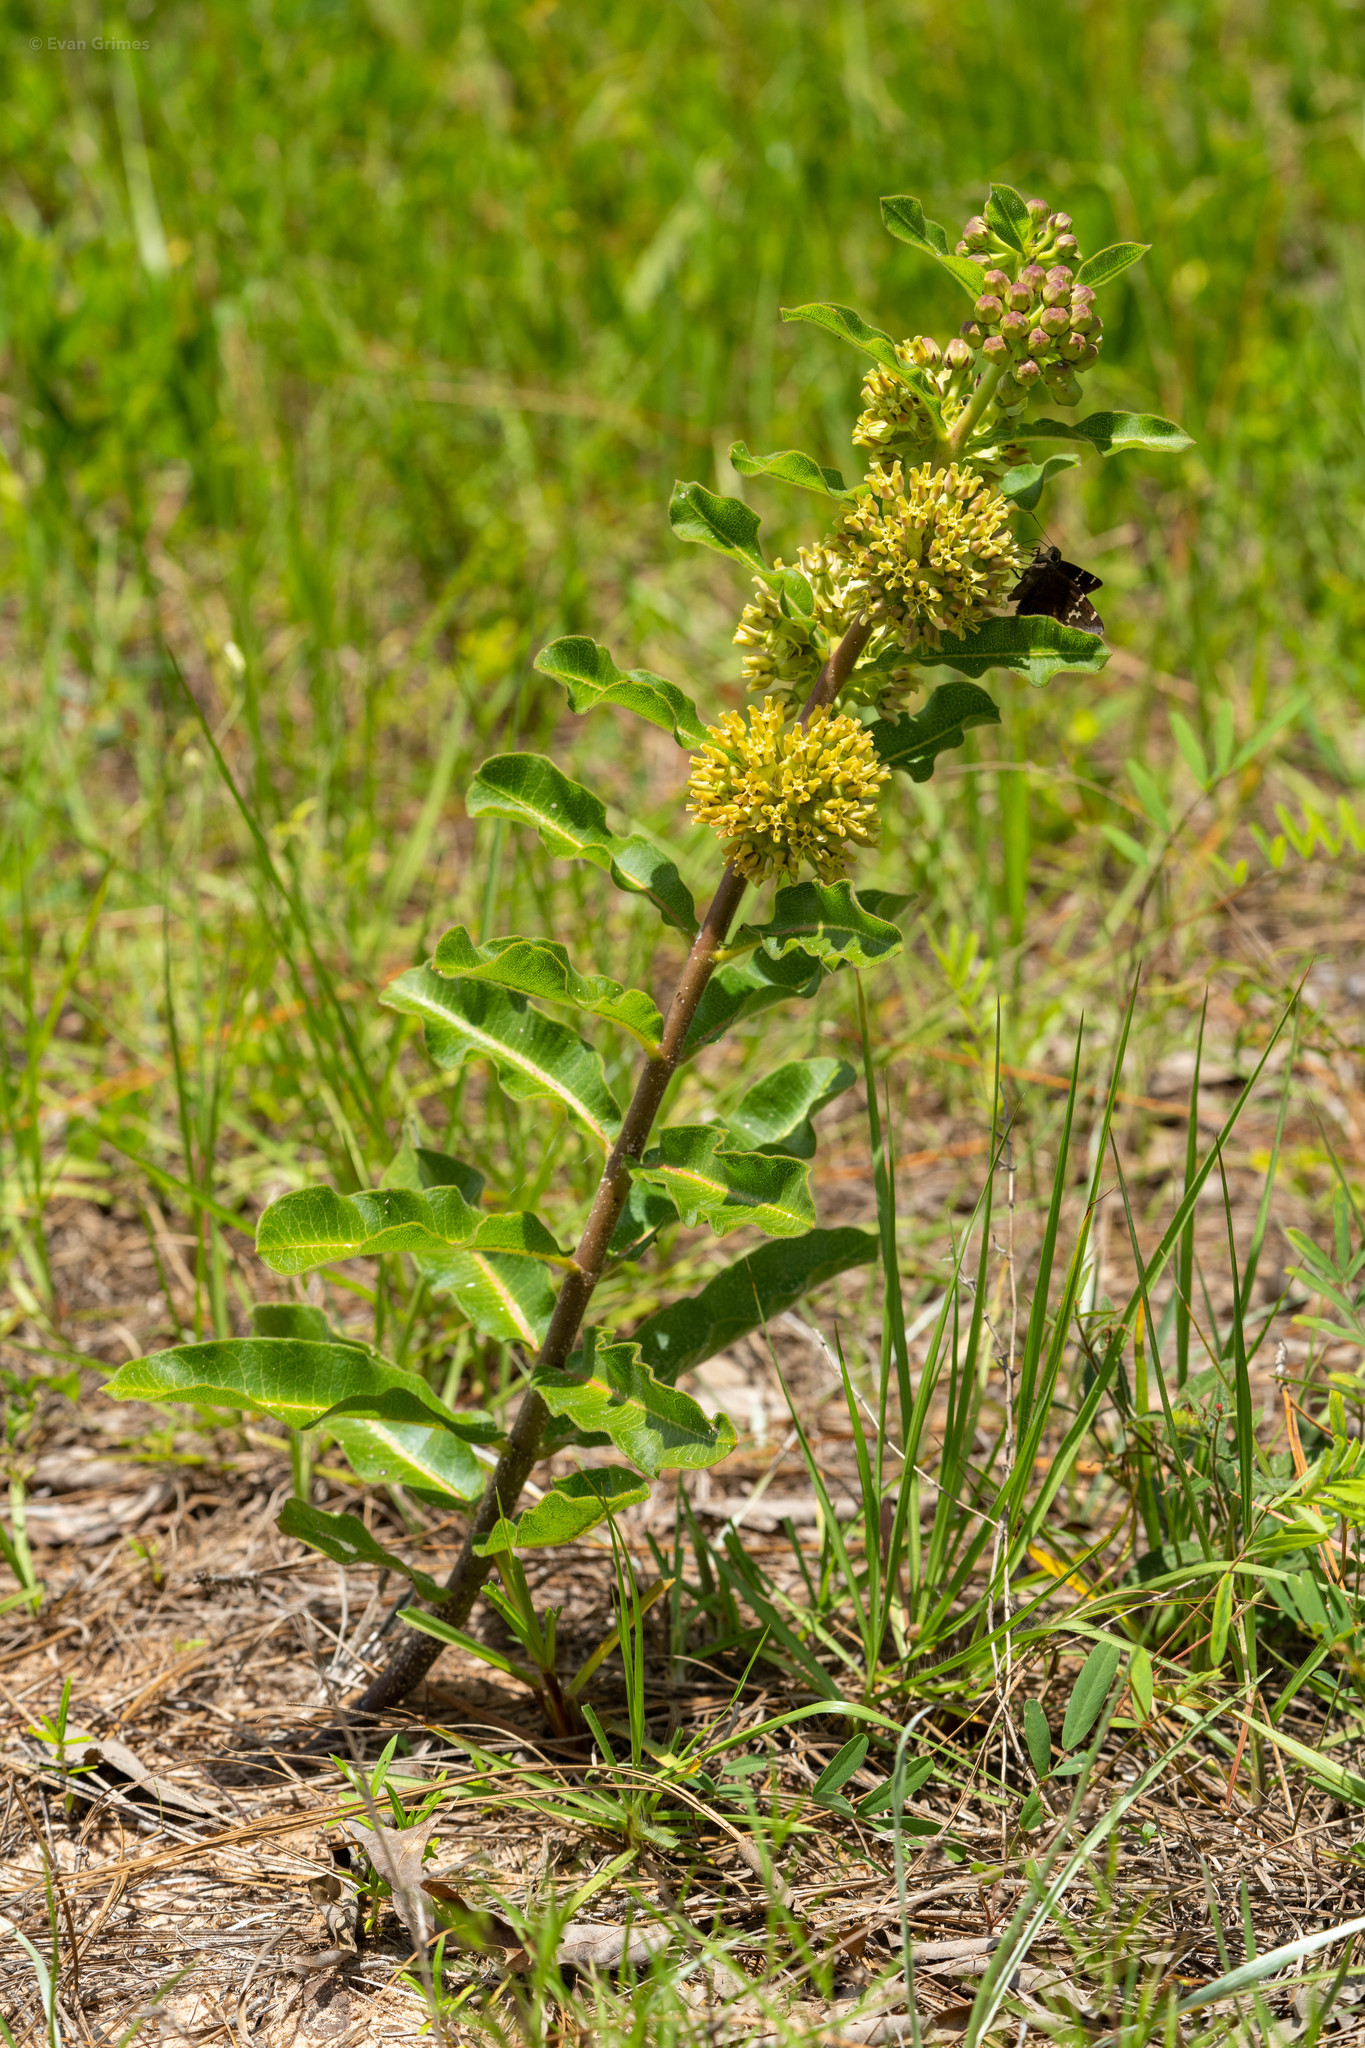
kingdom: Plantae
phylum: Tracheophyta
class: Magnoliopsida
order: Gentianales
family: Apocynaceae
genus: Asclepias
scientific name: Asclepias obovata
